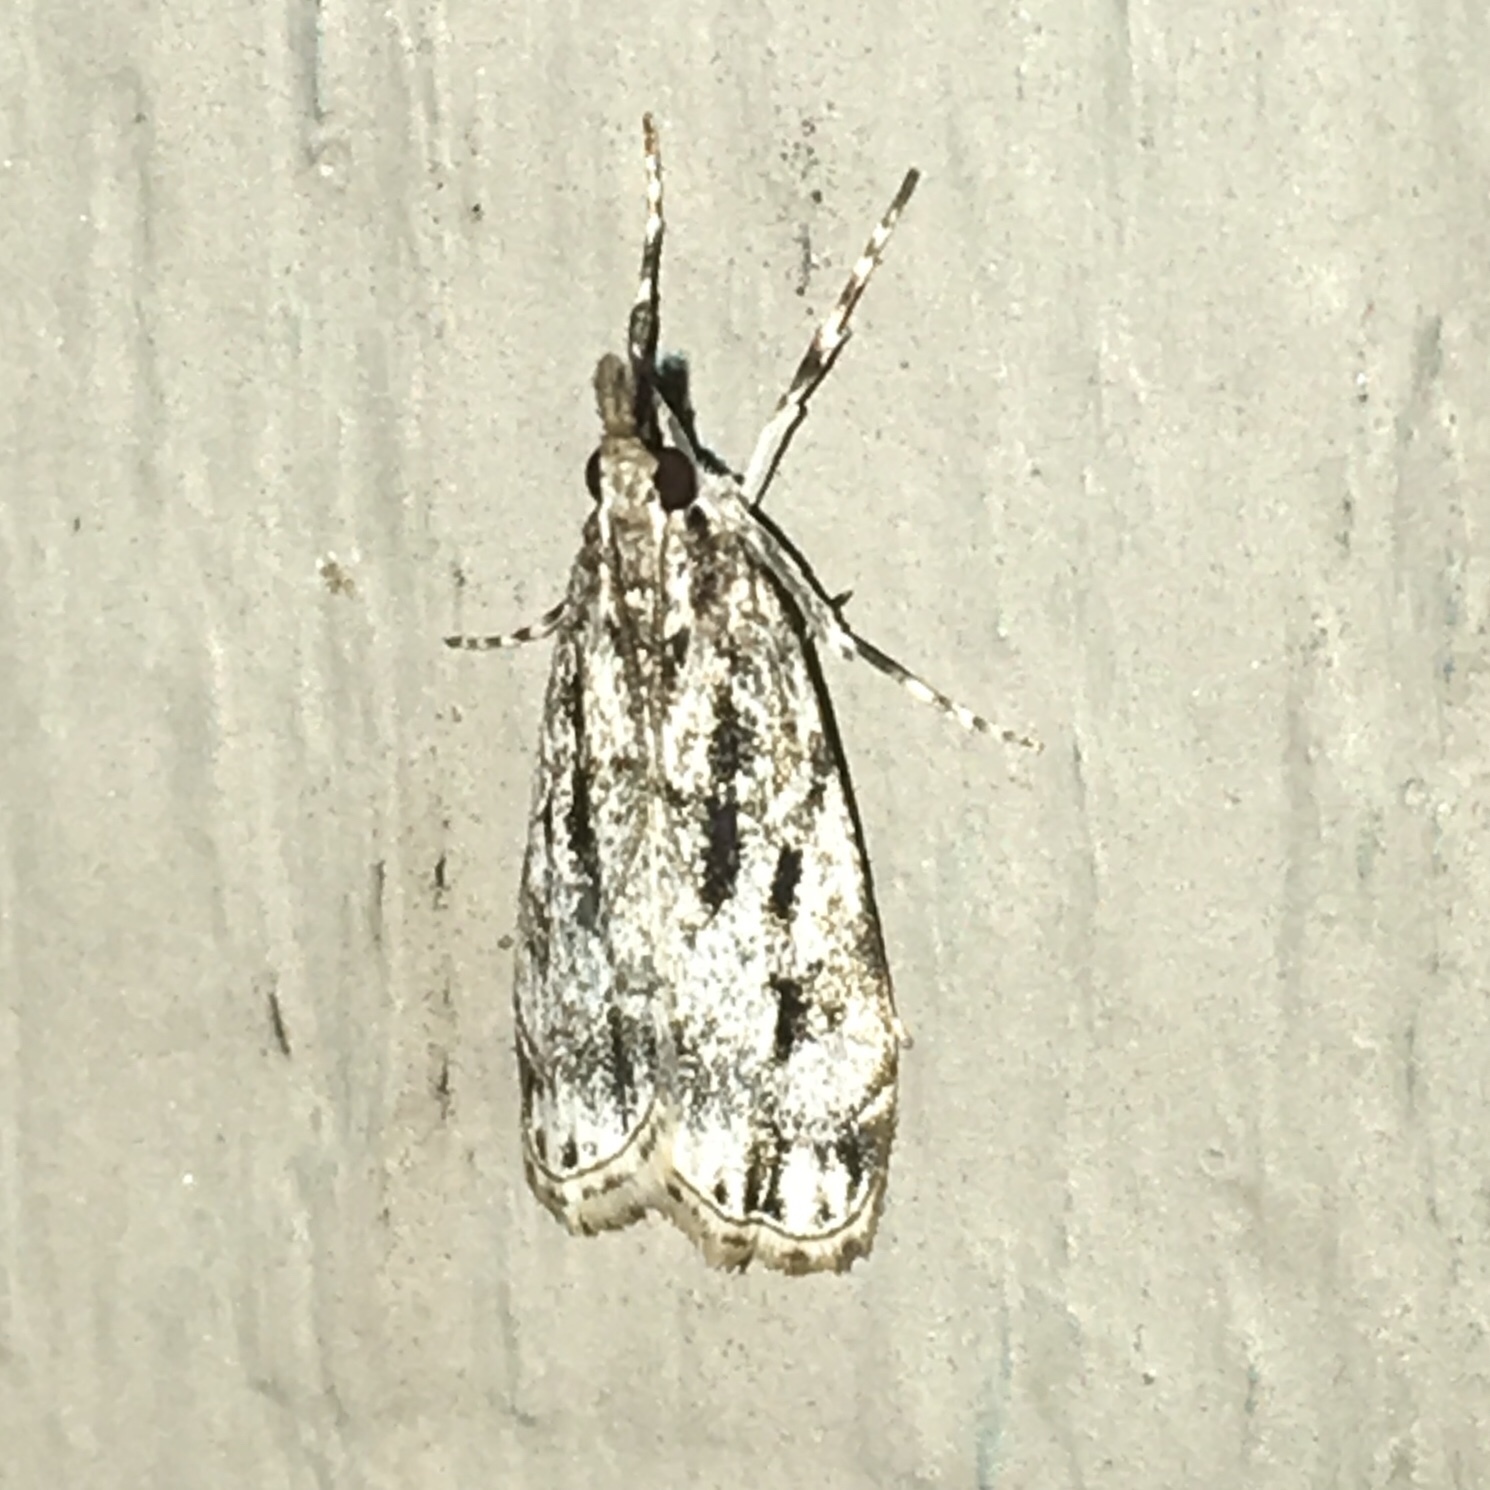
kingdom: Animalia
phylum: Arthropoda
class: Insecta
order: Lepidoptera
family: Crambidae
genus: Eudonia
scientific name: Eudonia strigalis
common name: Striped eudonia moth
